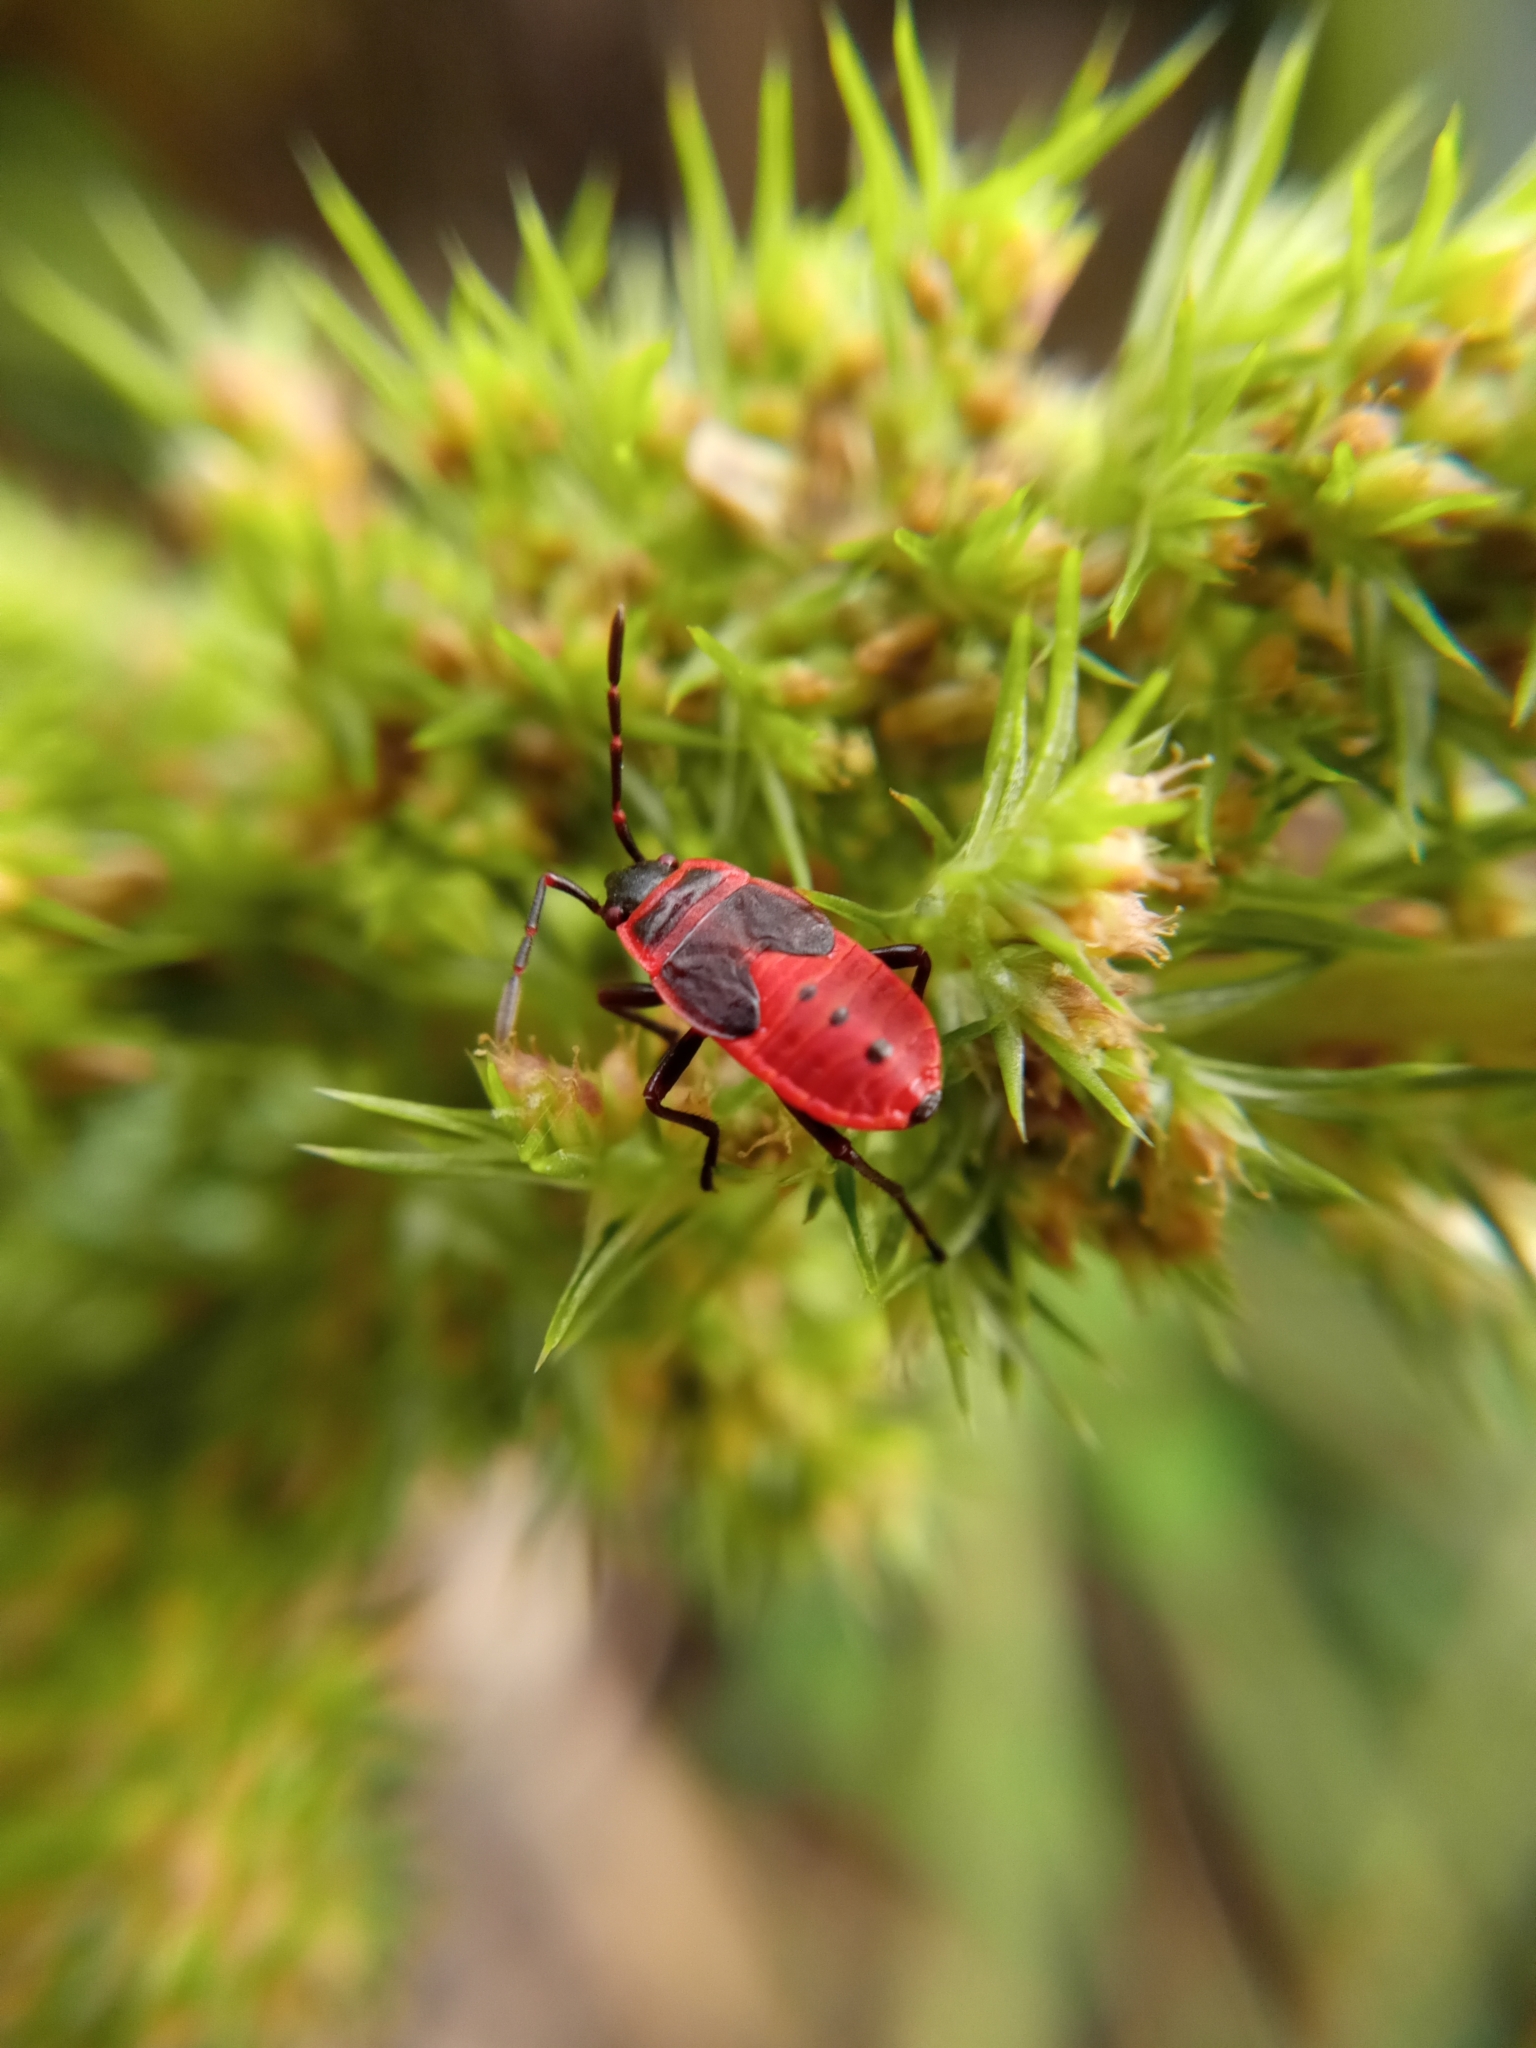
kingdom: Animalia
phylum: Arthropoda
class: Insecta
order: Hemiptera
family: Pyrrhocoridae
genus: Pyrrhocoris
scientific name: Pyrrhocoris apterus
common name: Firebug
